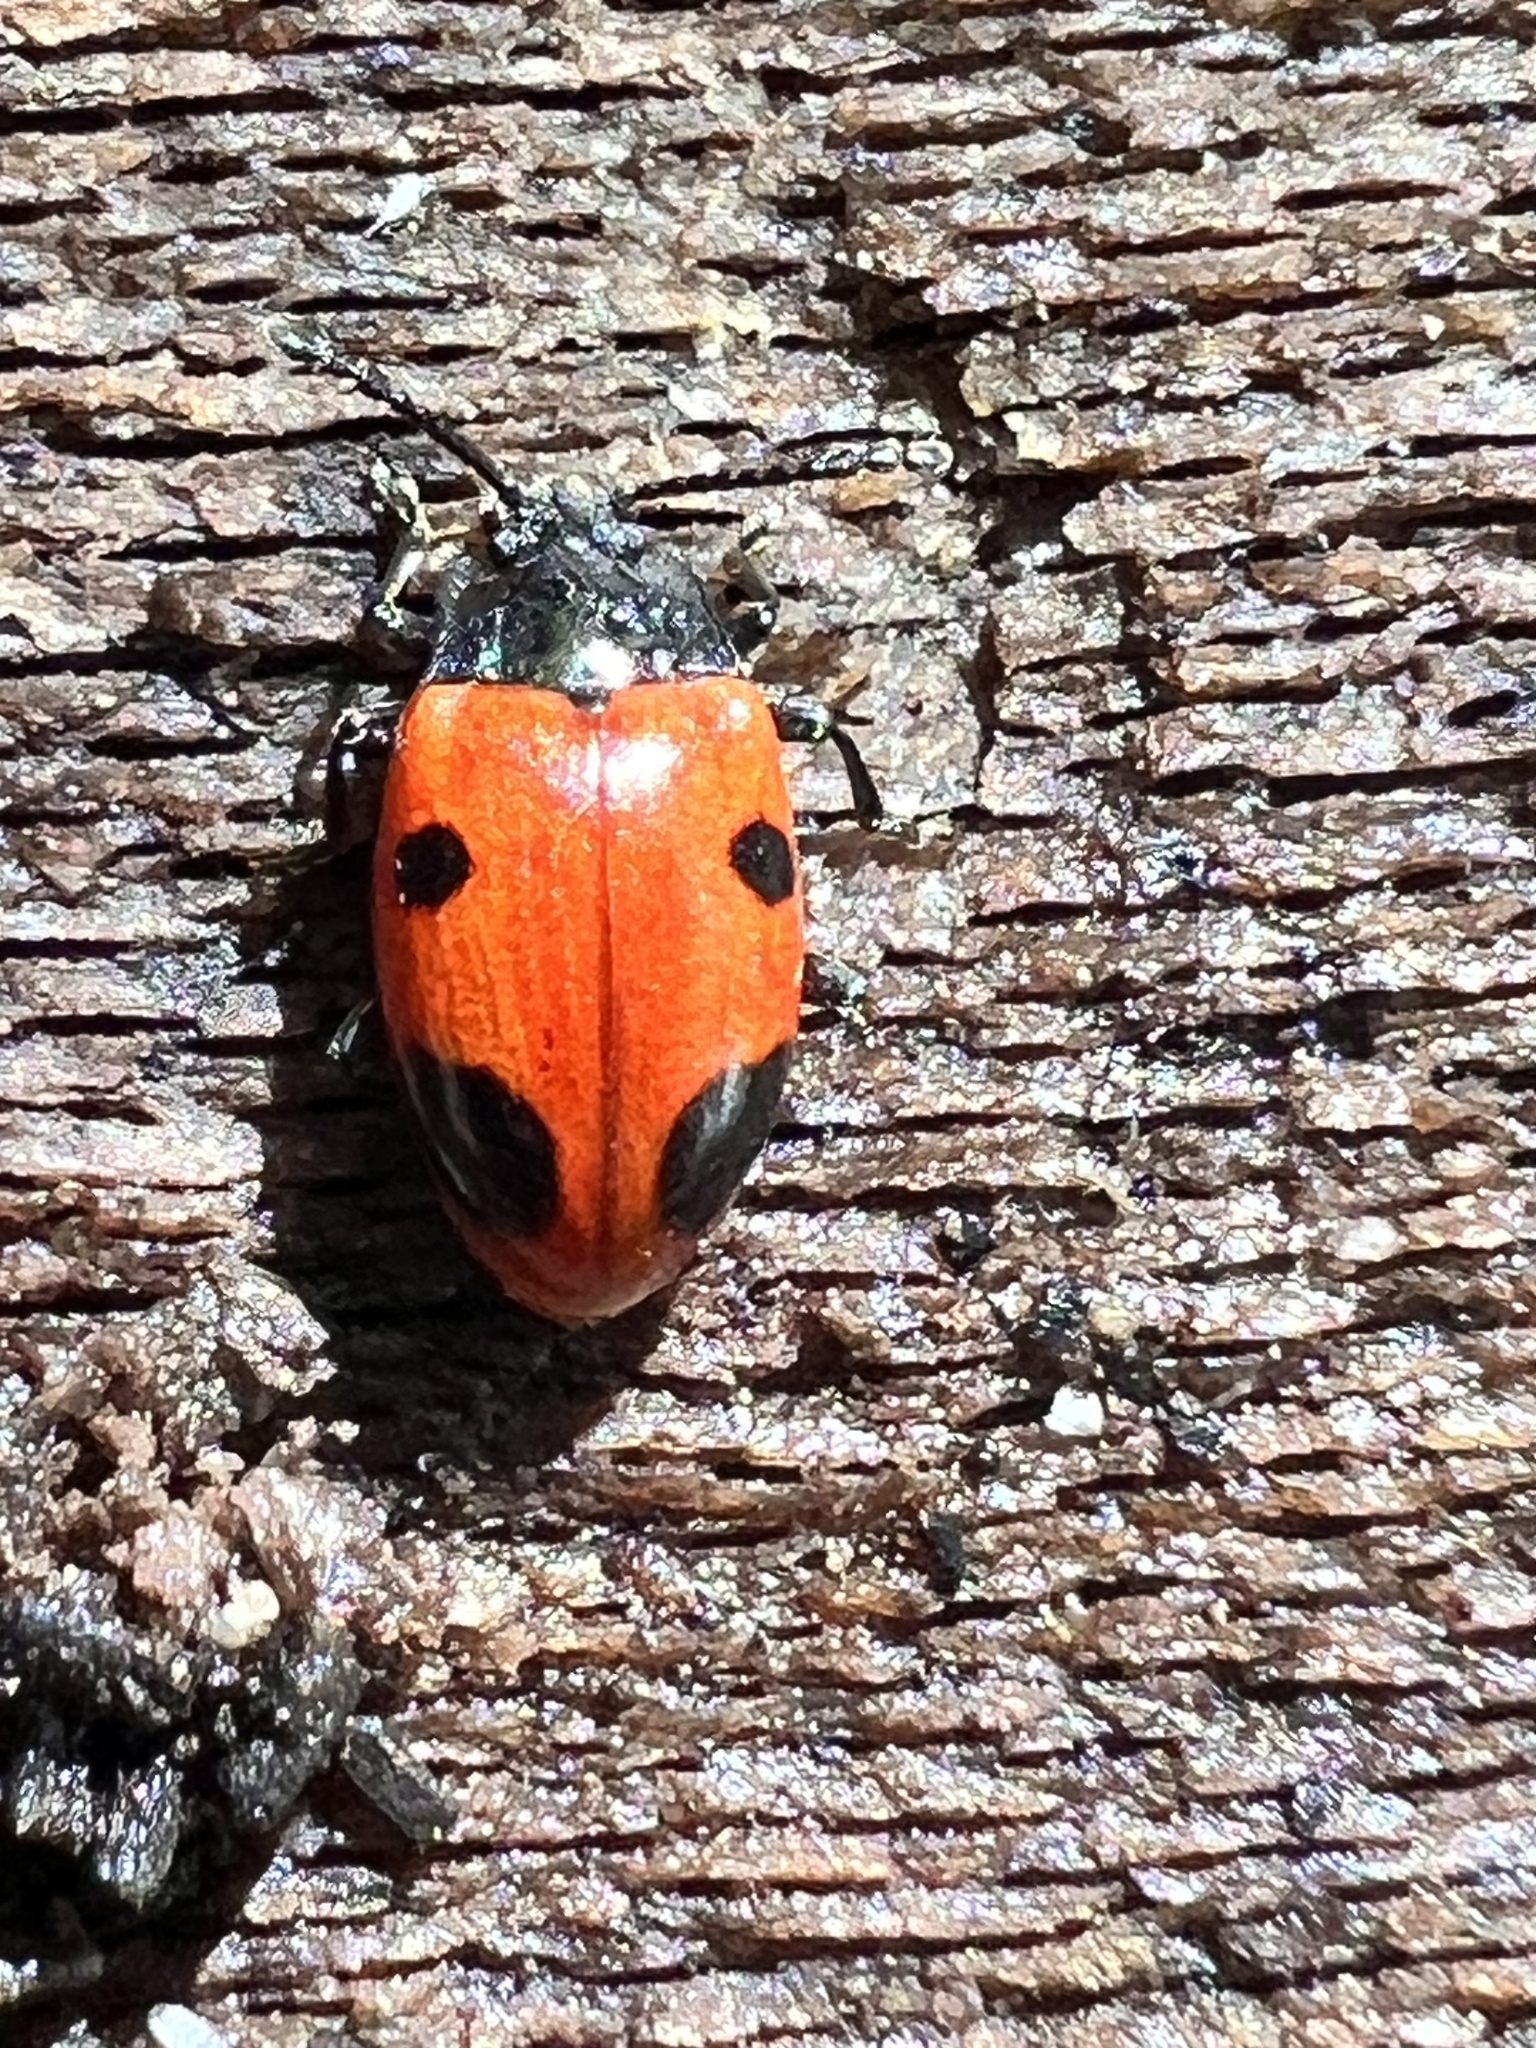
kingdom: Animalia
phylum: Arthropoda
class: Insecta
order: Coleoptera
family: Endomychidae
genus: Endomychus
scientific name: Endomychus biguttatus
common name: Handsome fungus beetle
